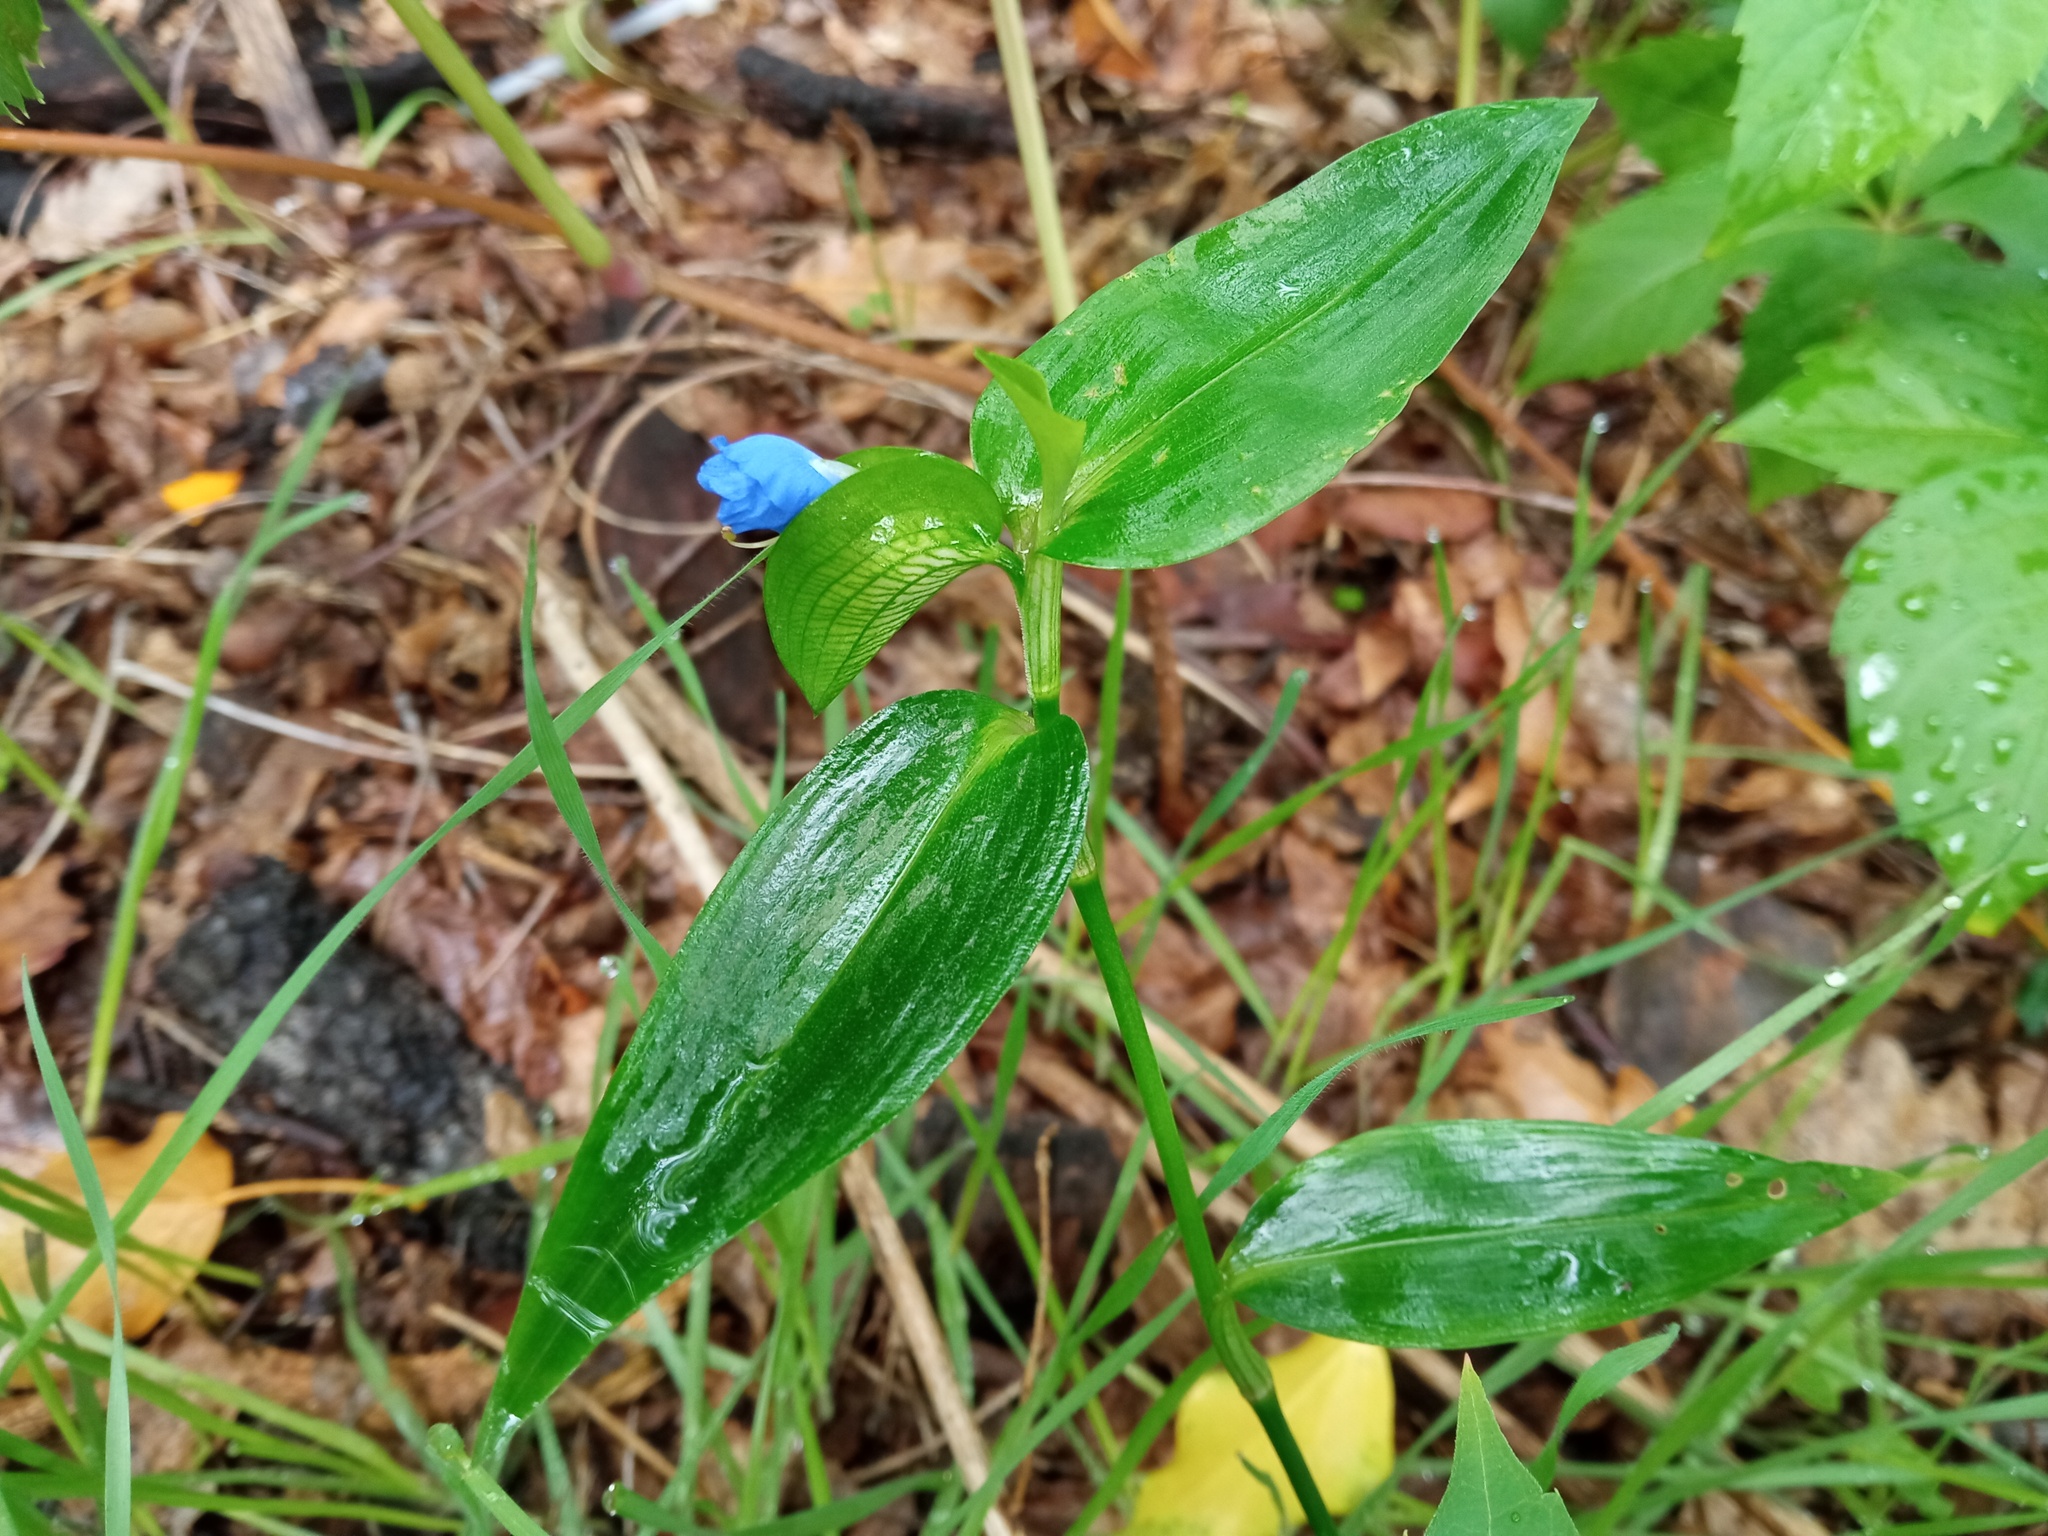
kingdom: Plantae
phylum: Tracheophyta
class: Liliopsida
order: Commelinales
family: Commelinaceae
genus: Commelina
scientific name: Commelina communis
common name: Asiatic dayflower
